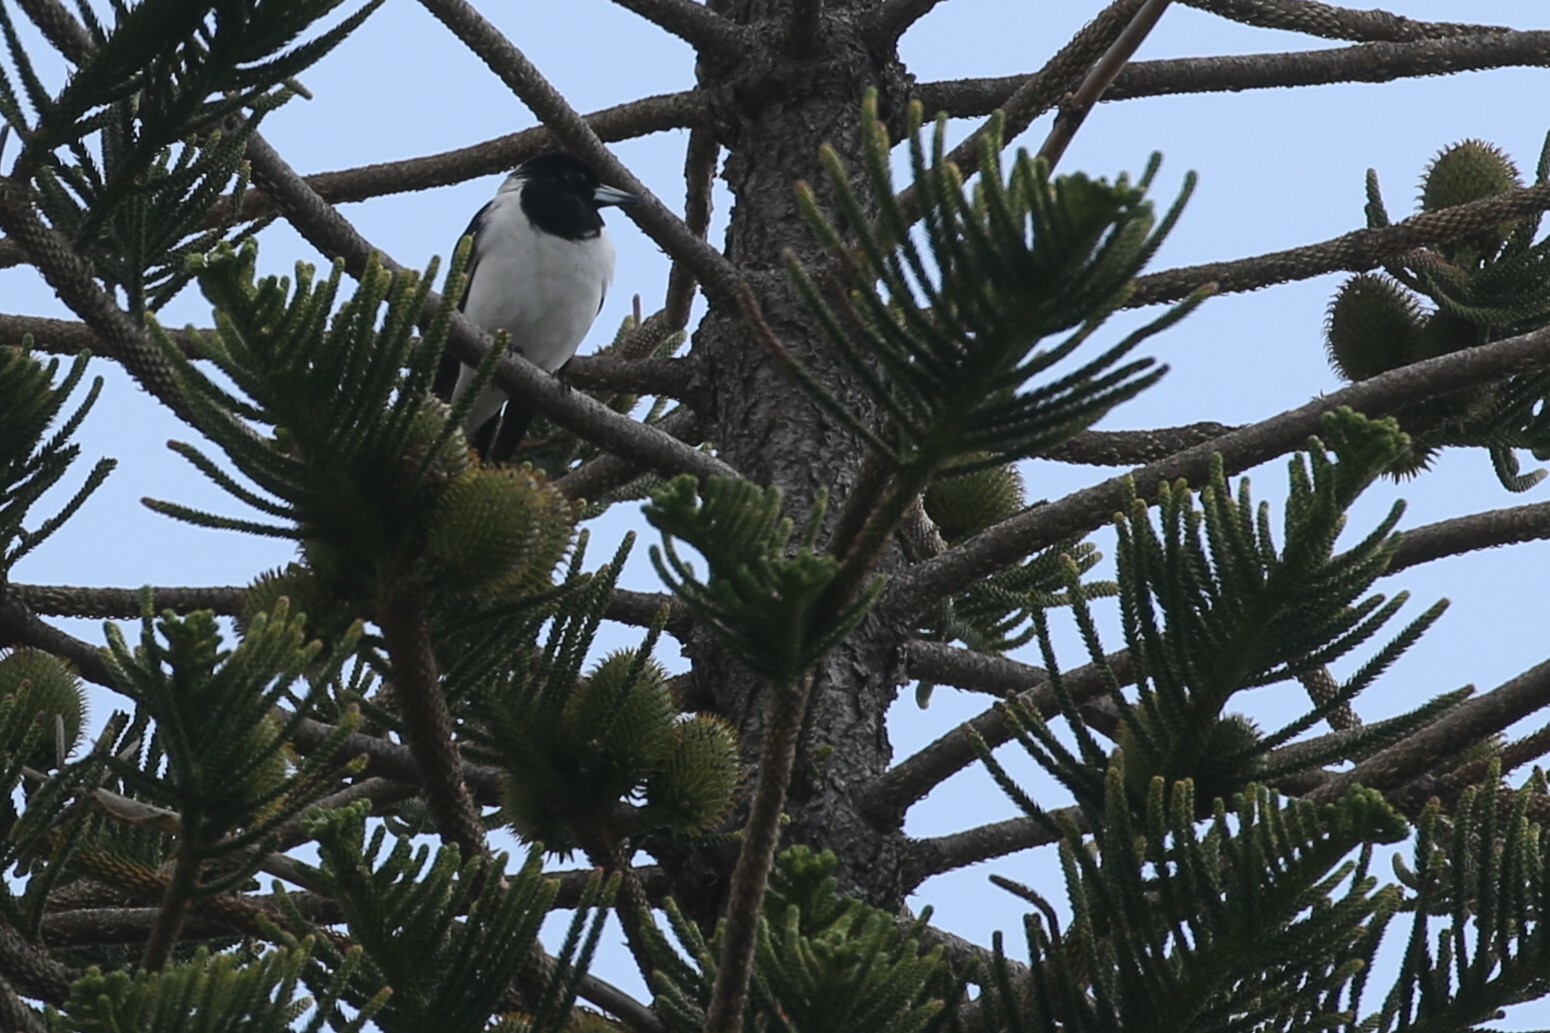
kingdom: Animalia
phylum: Chordata
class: Aves
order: Passeriformes
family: Cracticidae
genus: Cracticus
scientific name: Cracticus nigrogularis
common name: Pied butcherbird
